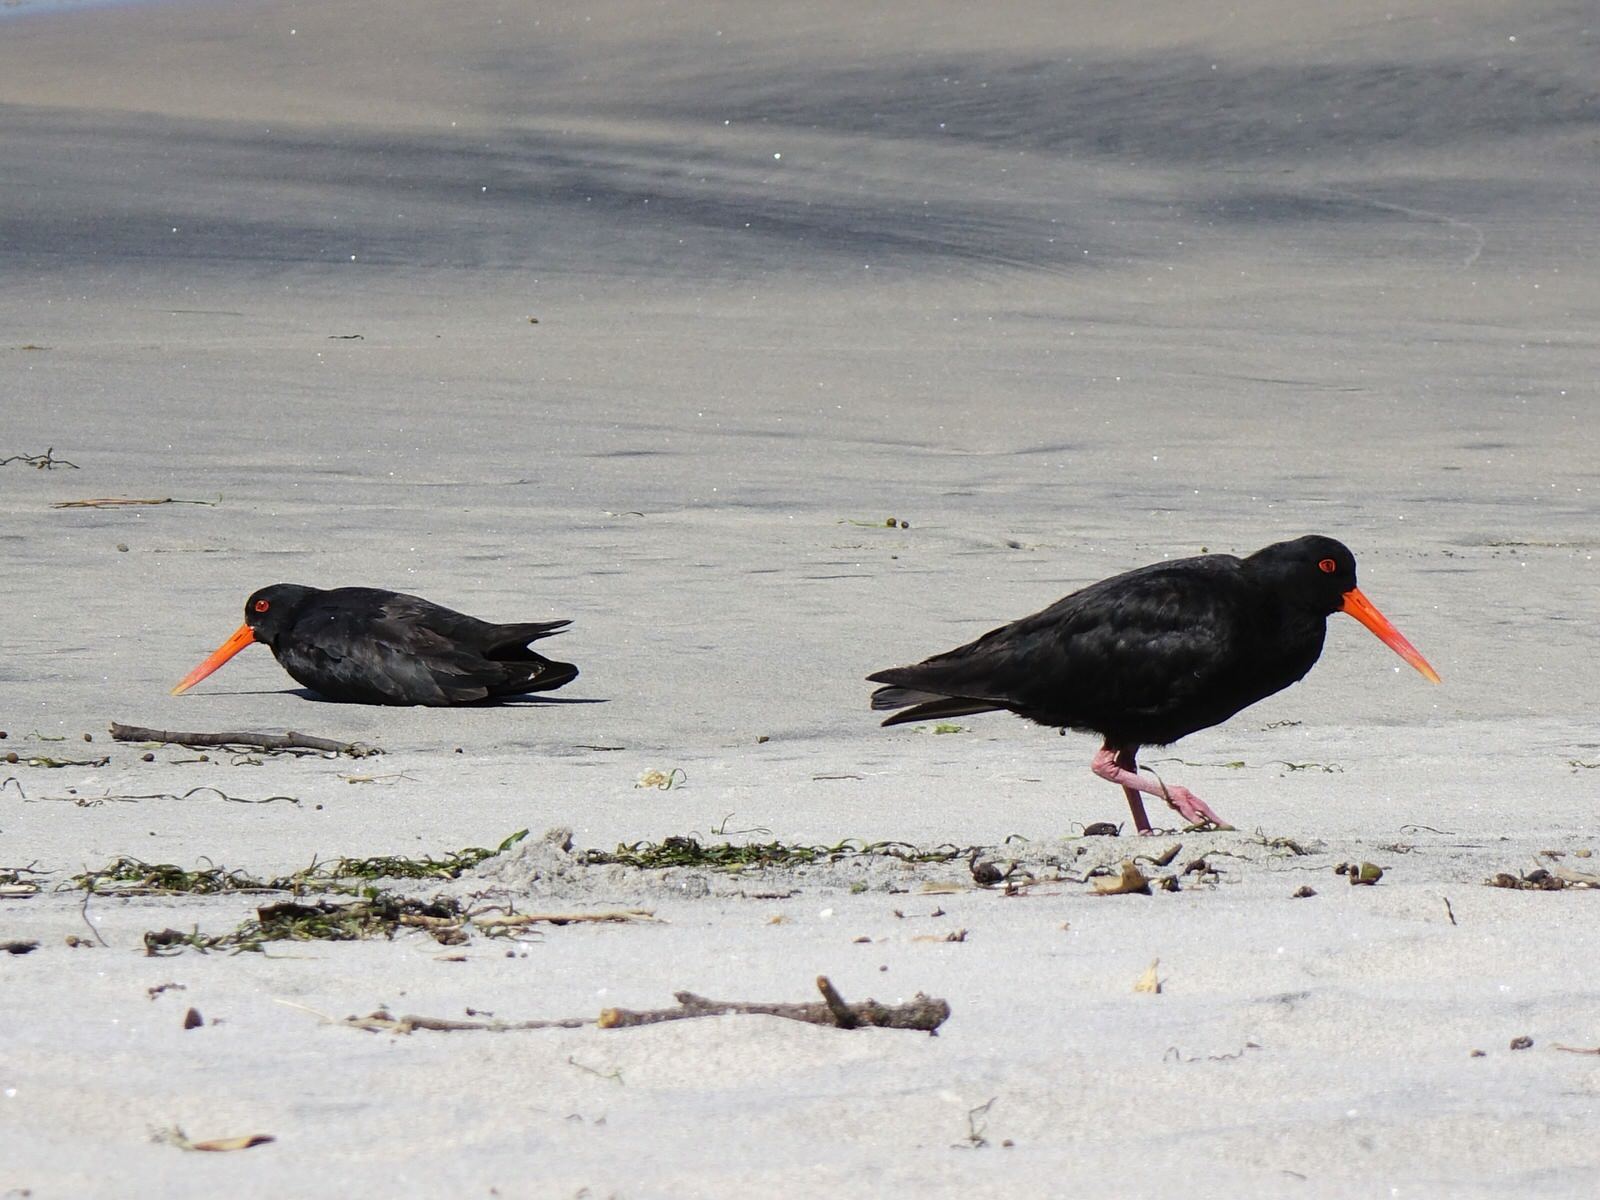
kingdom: Animalia
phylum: Chordata
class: Aves
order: Charadriiformes
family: Haematopodidae
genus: Haematopus
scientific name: Haematopus unicolor
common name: Variable oystercatcher
